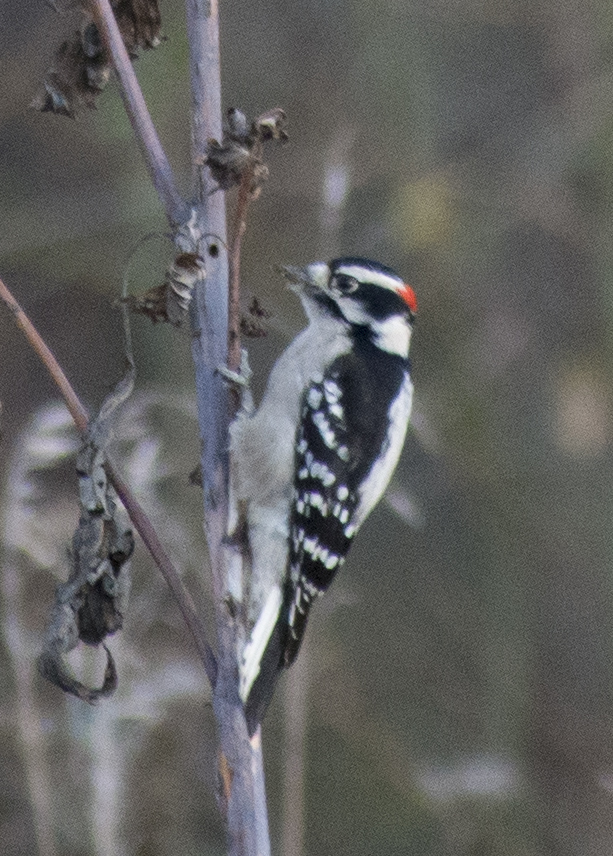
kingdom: Animalia
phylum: Chordata
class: Aves
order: Piciformes
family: Picidae
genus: Dryobates
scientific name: Dryobates pubescens
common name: Downy woodpecker
